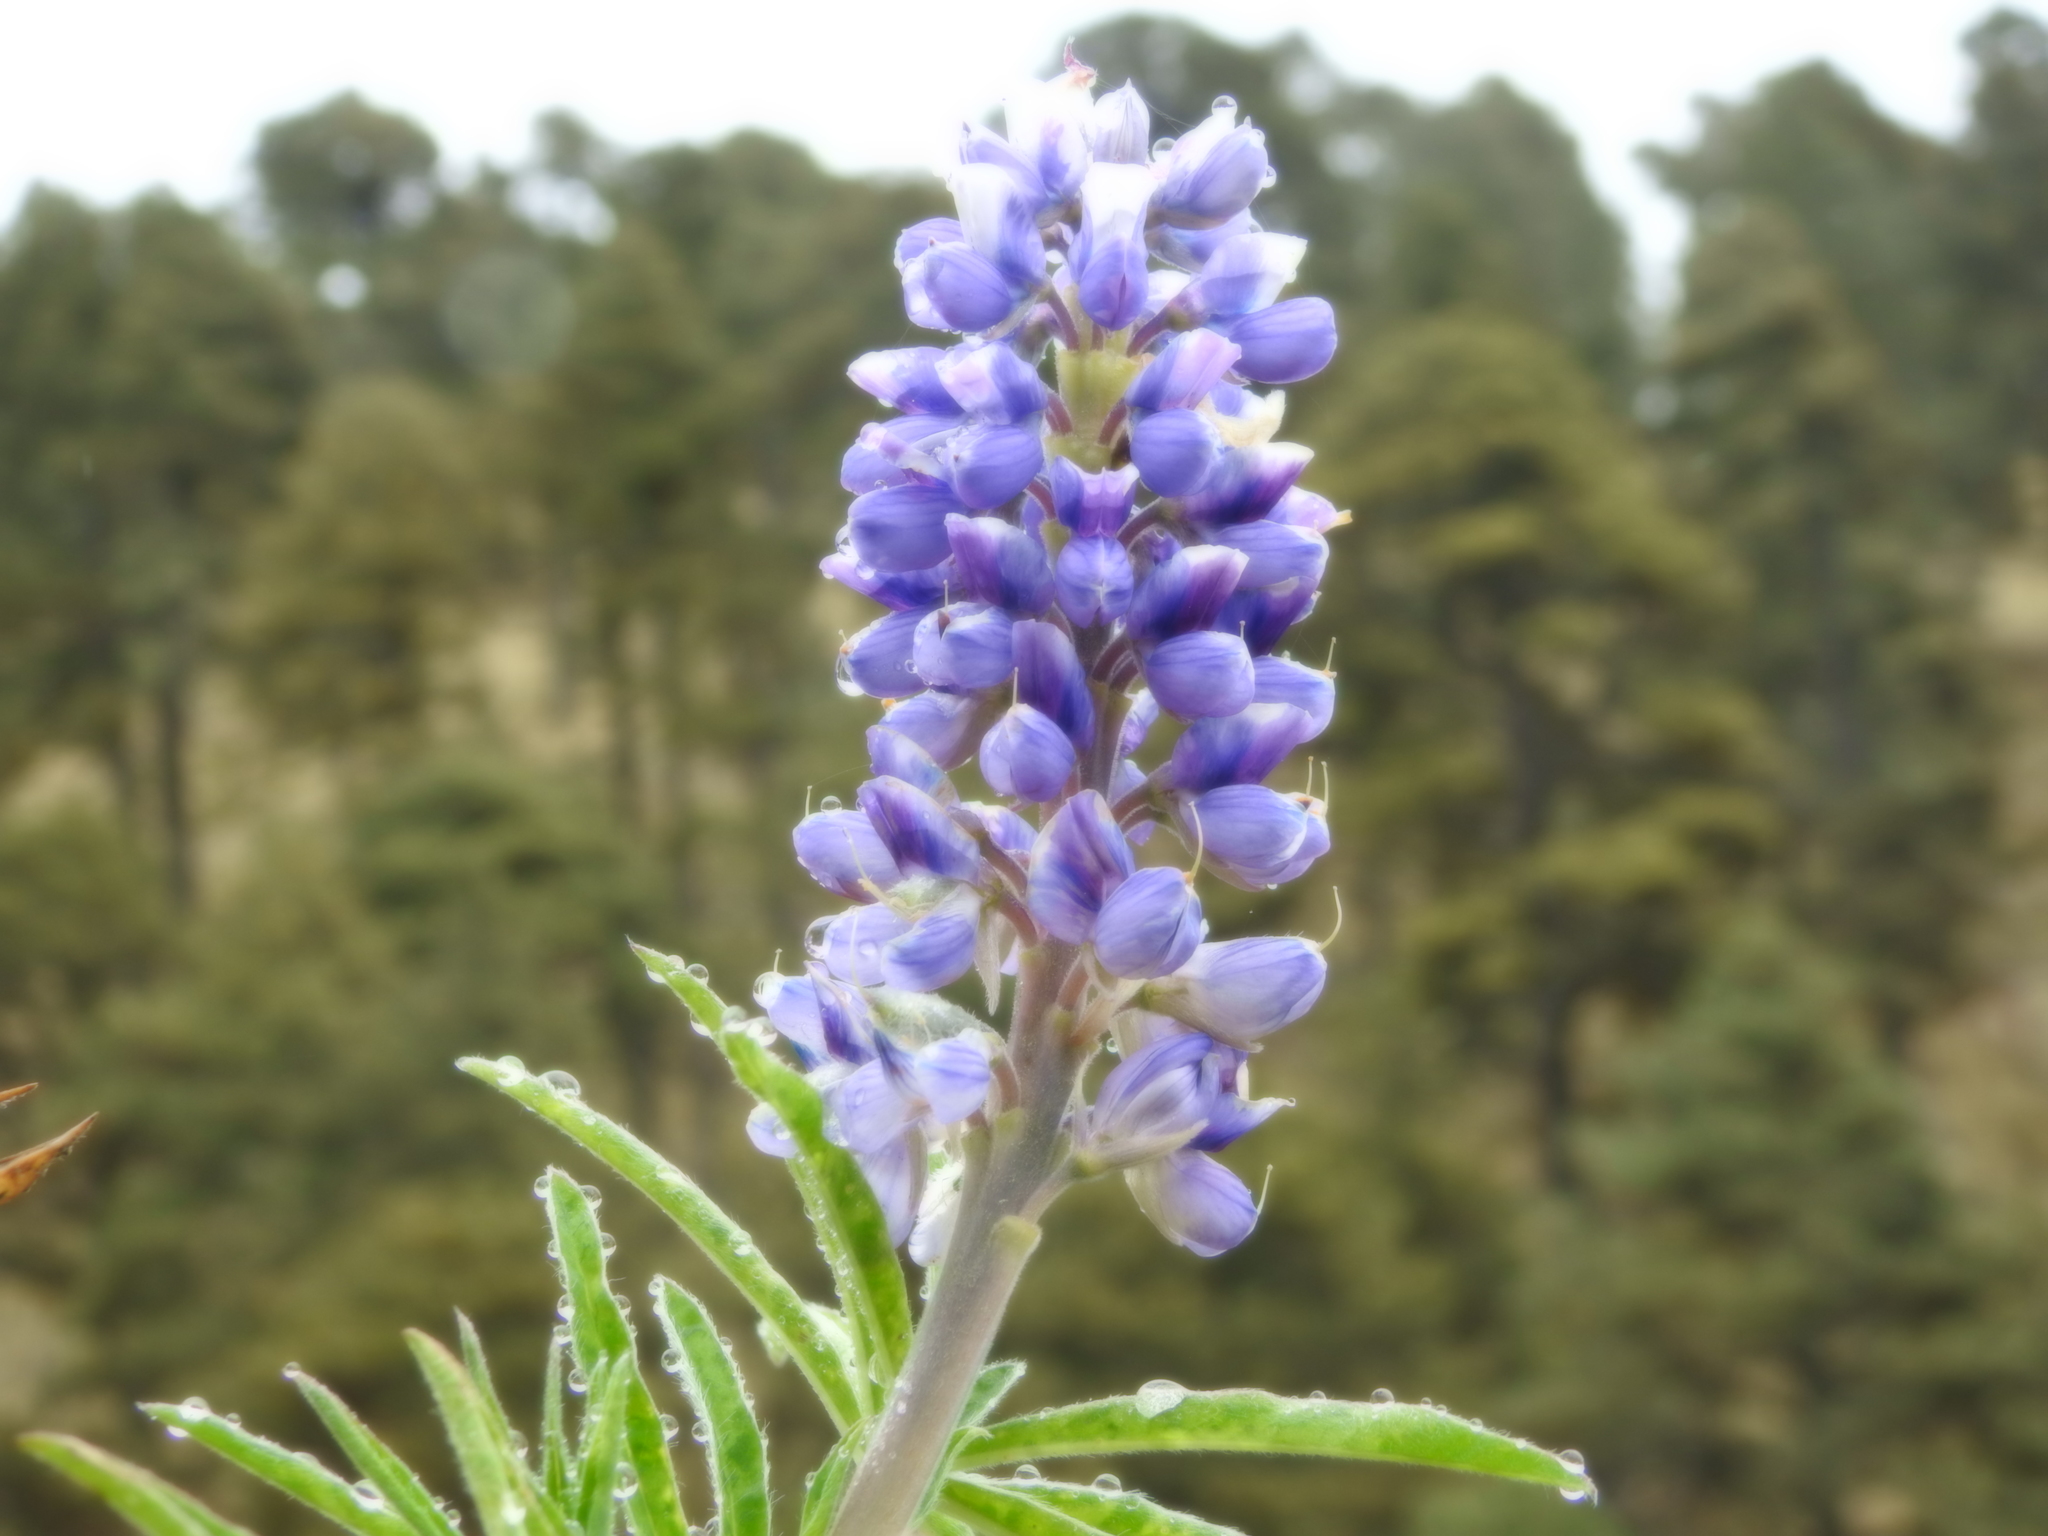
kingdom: Plantae
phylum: Tracheophyta
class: Magnoliopsida
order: Fabales
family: Fabaceae
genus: Lupinus
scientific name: Lupinus montanus
